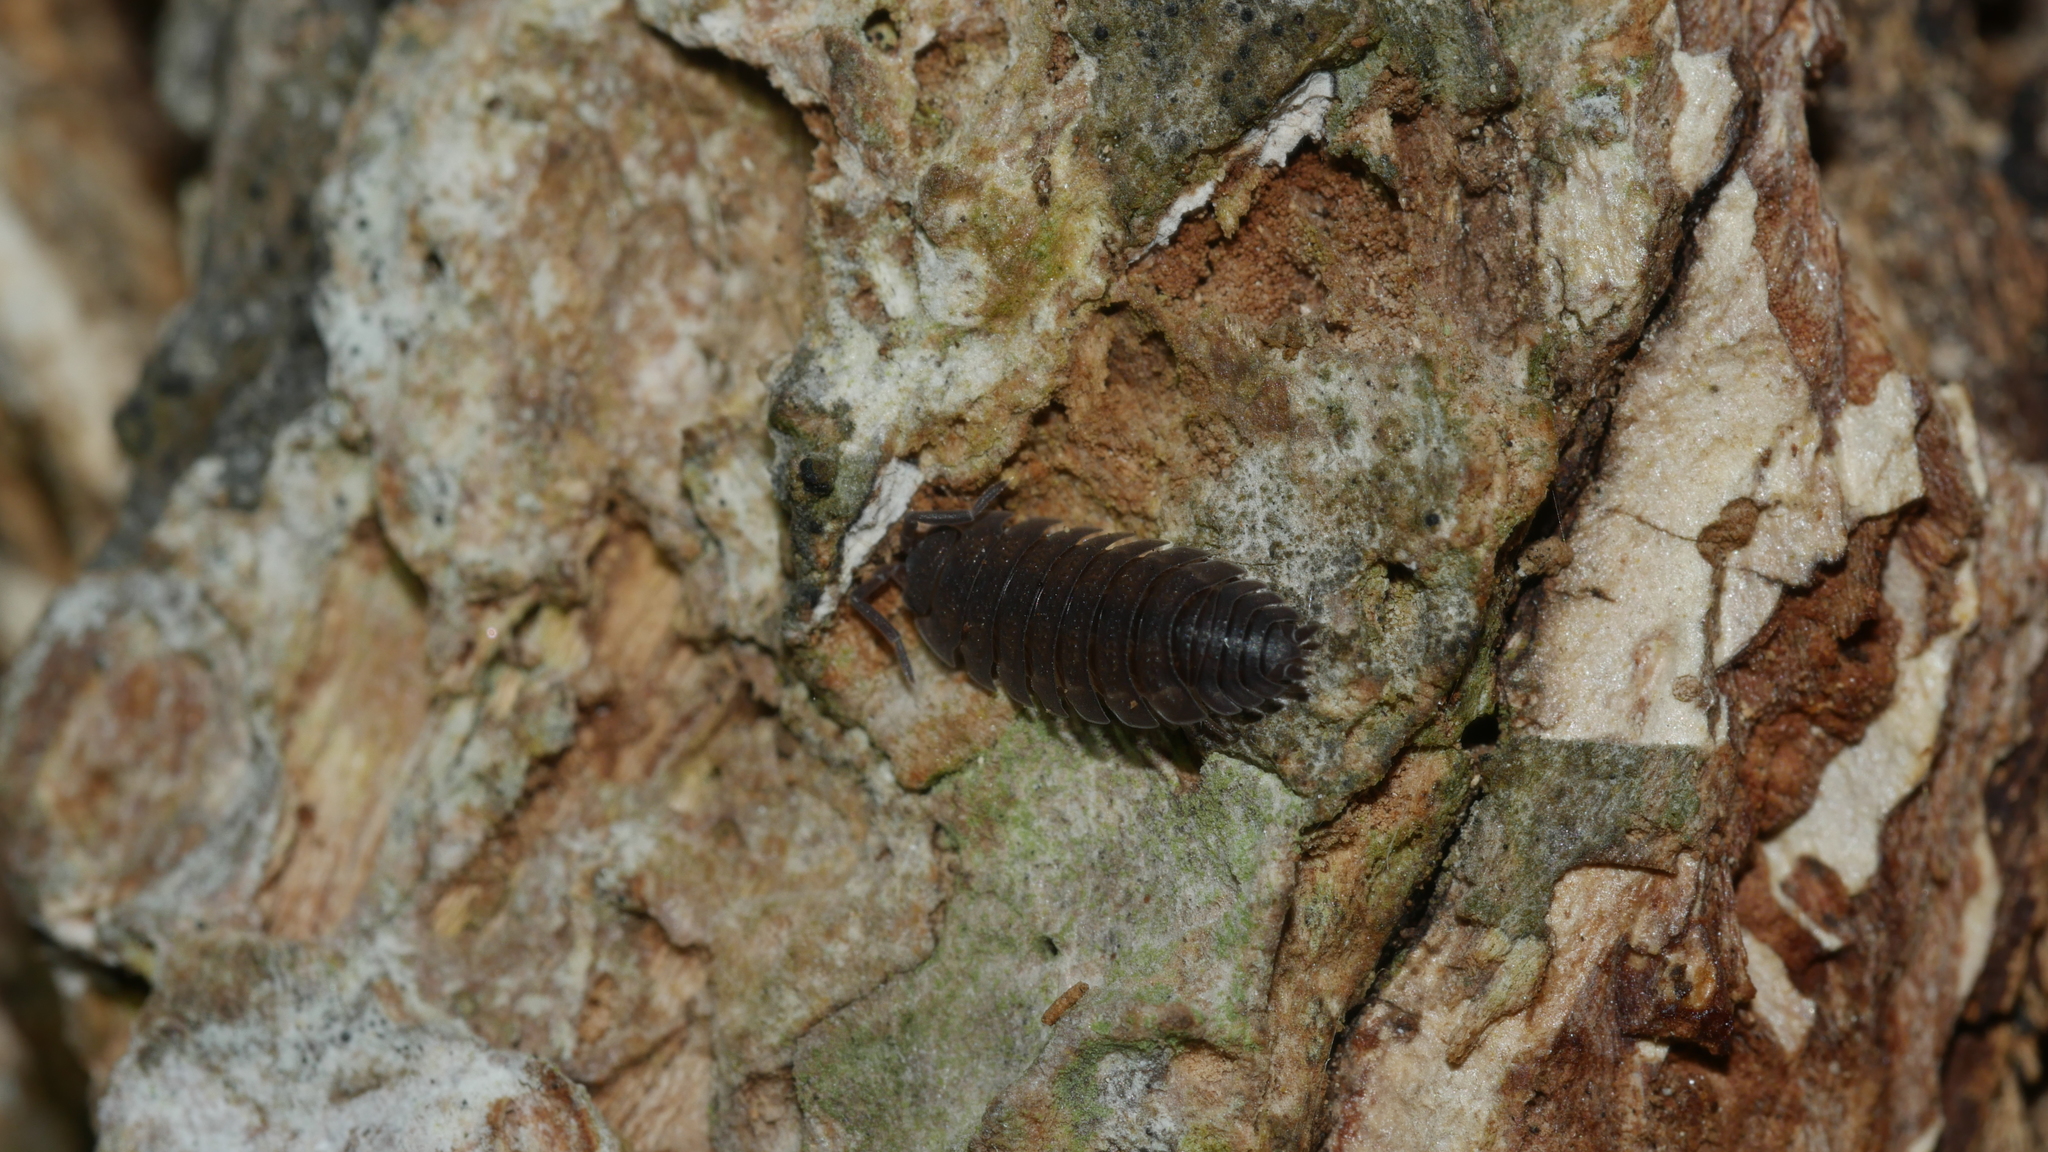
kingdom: Animalia
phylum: Arthropoda
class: Malacostraca
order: Isopoda
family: Porcellionidae
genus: Porcellio
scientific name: Porcellio scaber
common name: Common rough woodlouse
